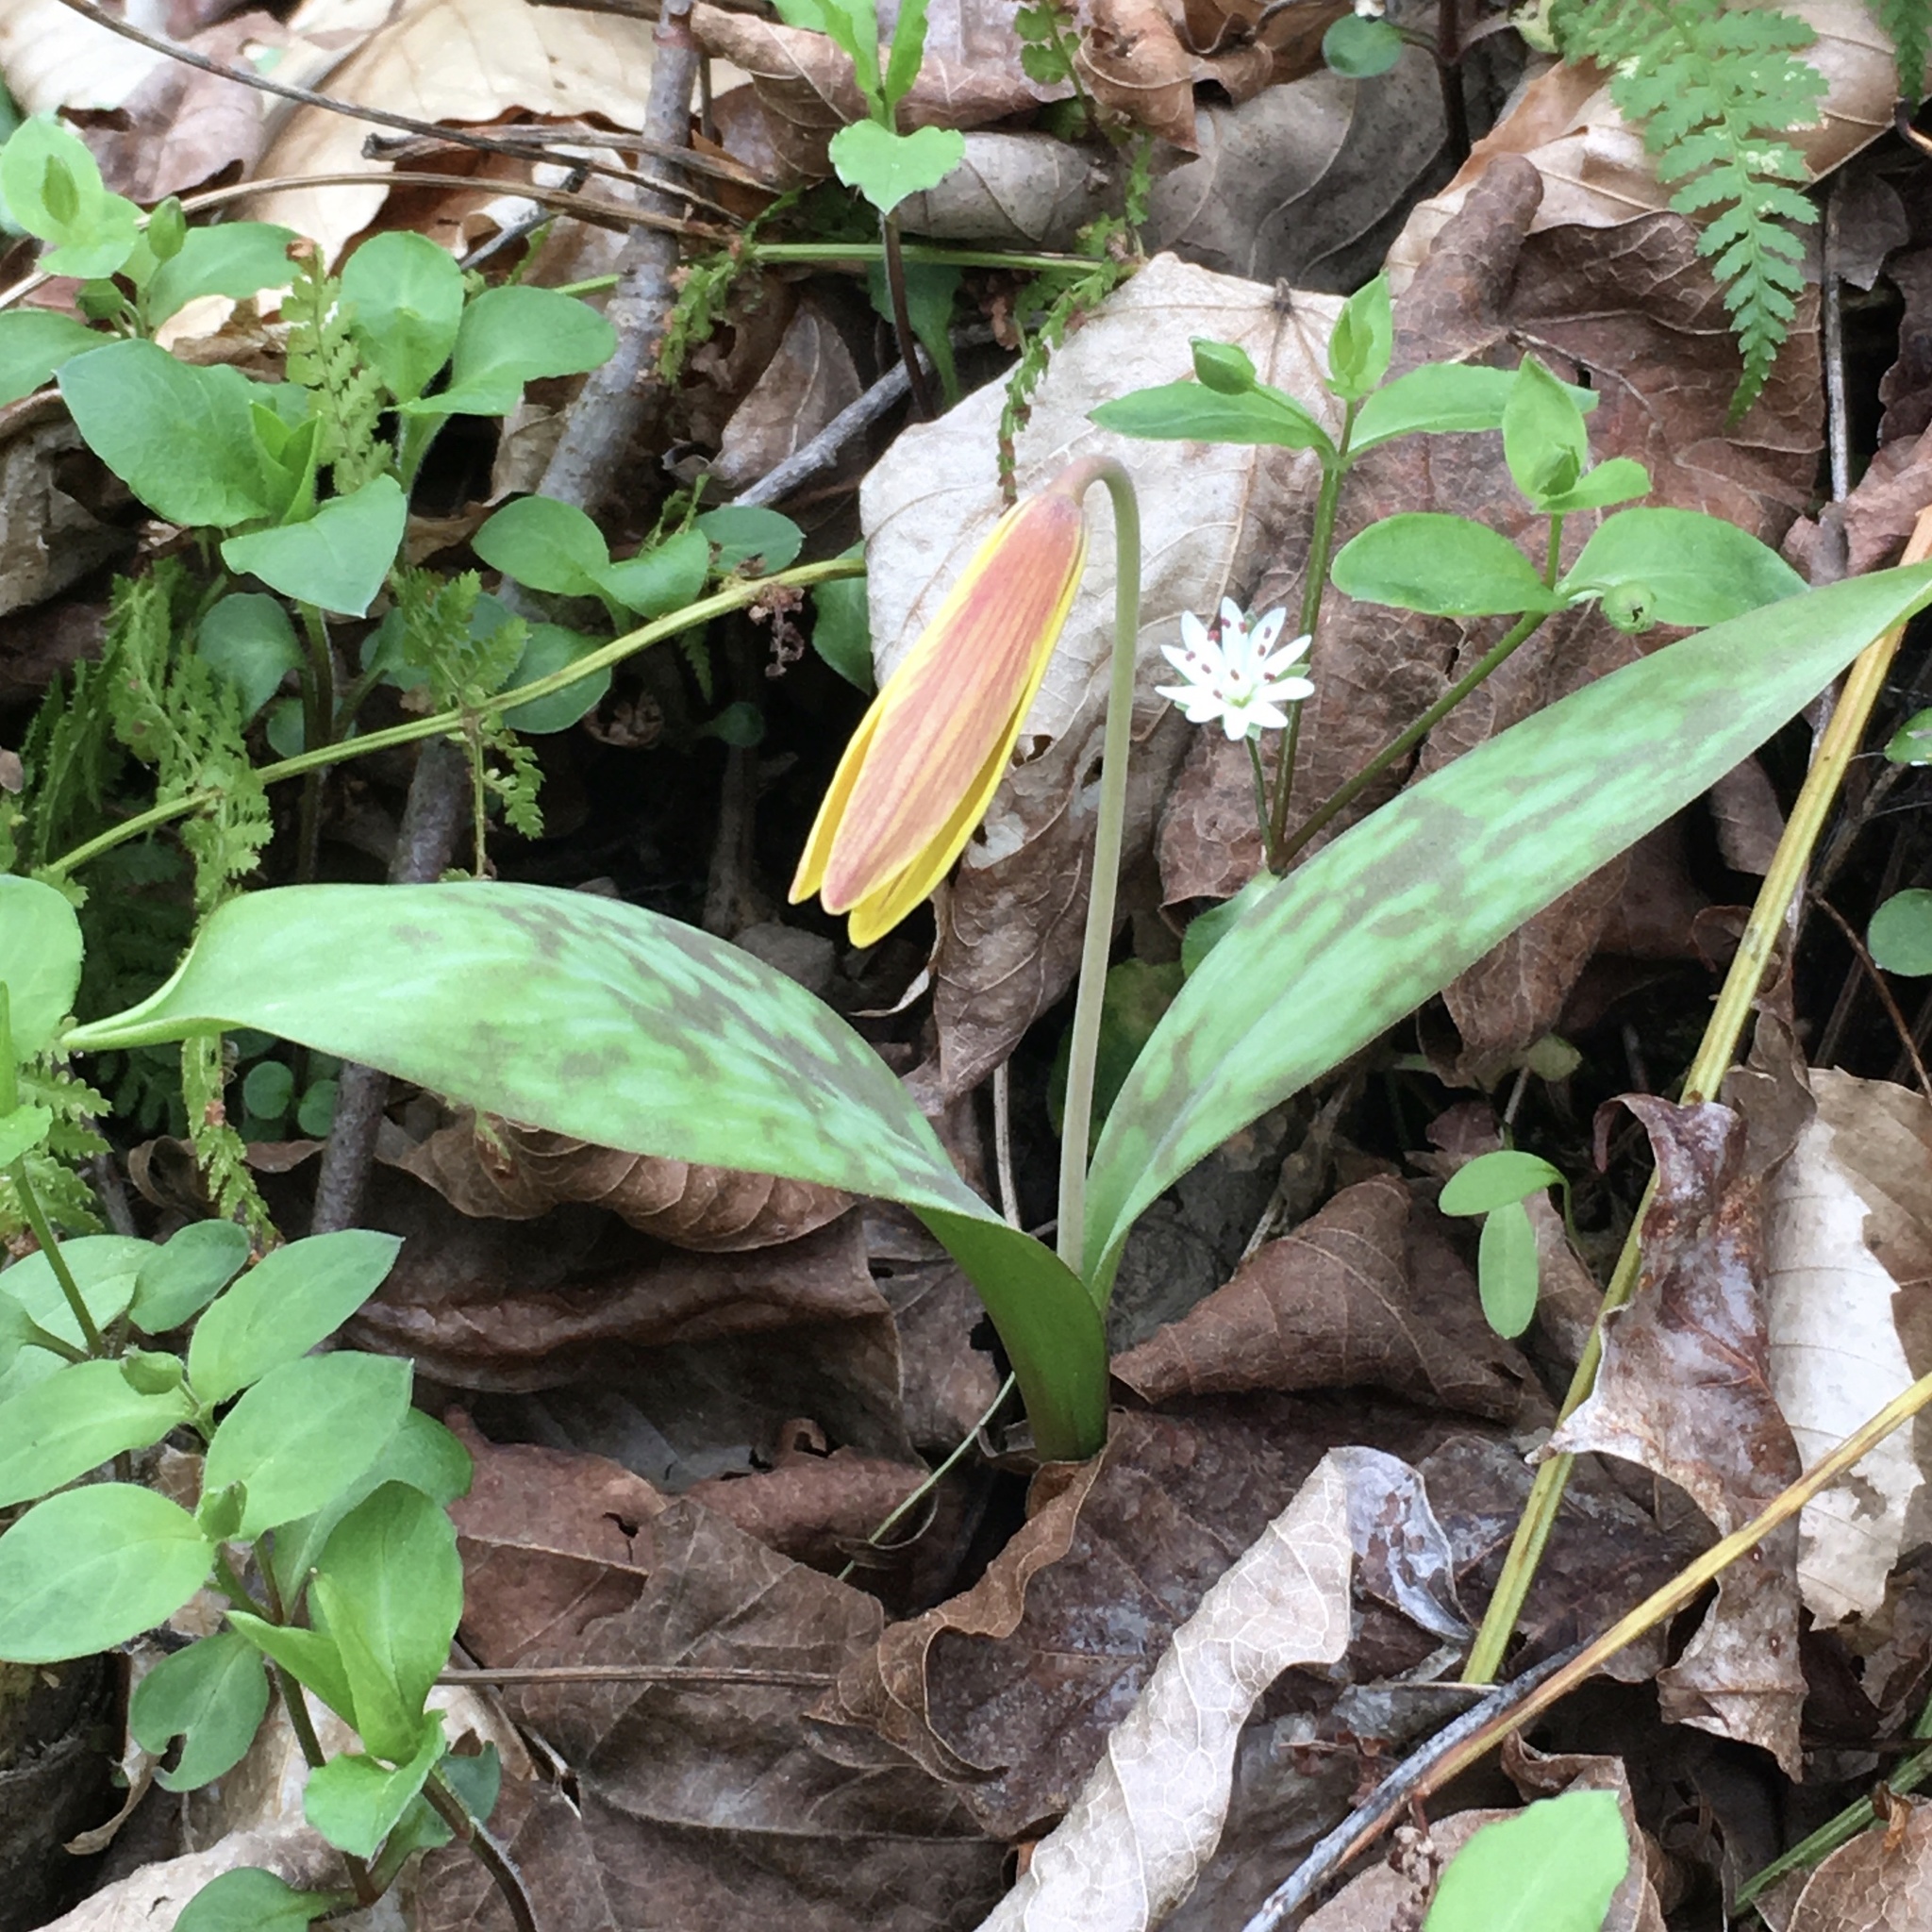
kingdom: Plantae
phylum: Tracheophyta
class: Liliopsida
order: Liliales
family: Liliaceae
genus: Erythronium
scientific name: Erythronium americanum
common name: Yellow adder's-tongue
